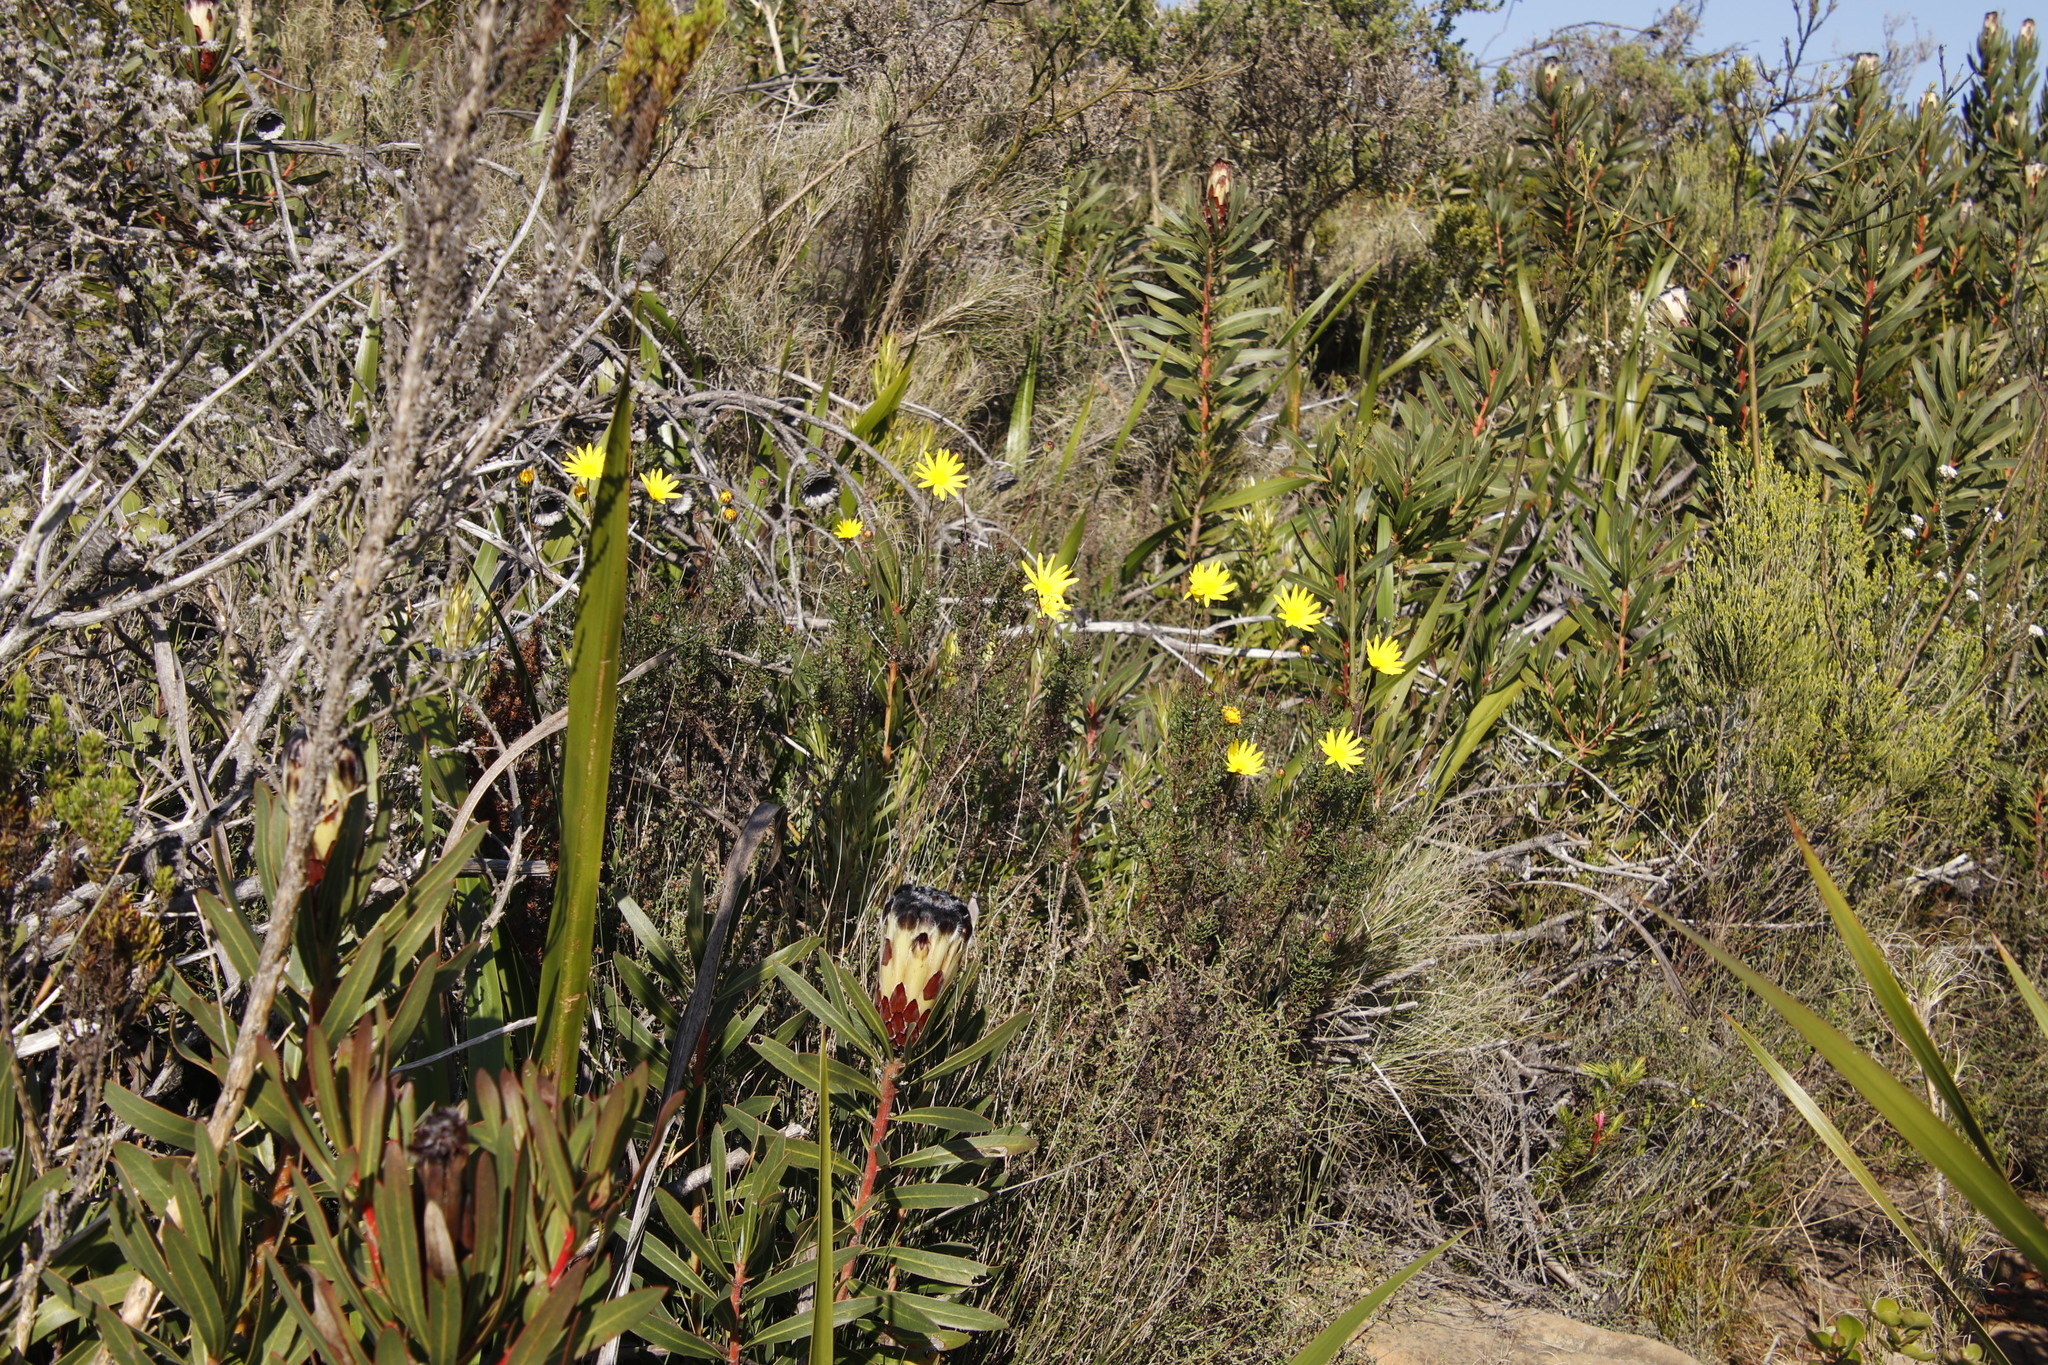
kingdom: Plantae
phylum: Tracheophyta
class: Magnoliopsida
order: Asterales
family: Asteraceae
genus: Euryops
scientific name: Euryops abrotanifolius
